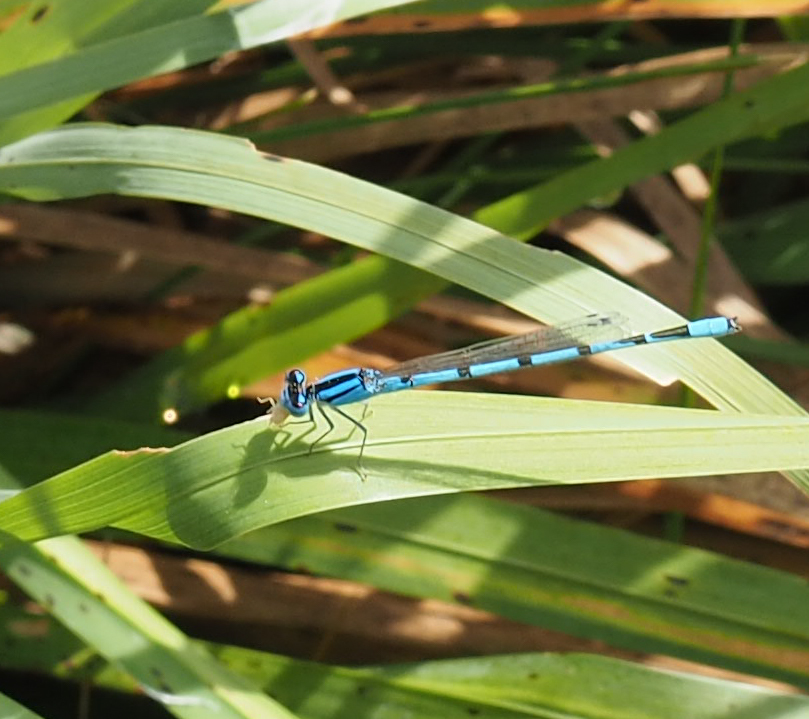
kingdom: Animalia
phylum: Arthropoda
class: Insecta
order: Odonata
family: Coenagrionidae
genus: Enallagma
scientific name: Enallagma civile
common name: Damselfly
